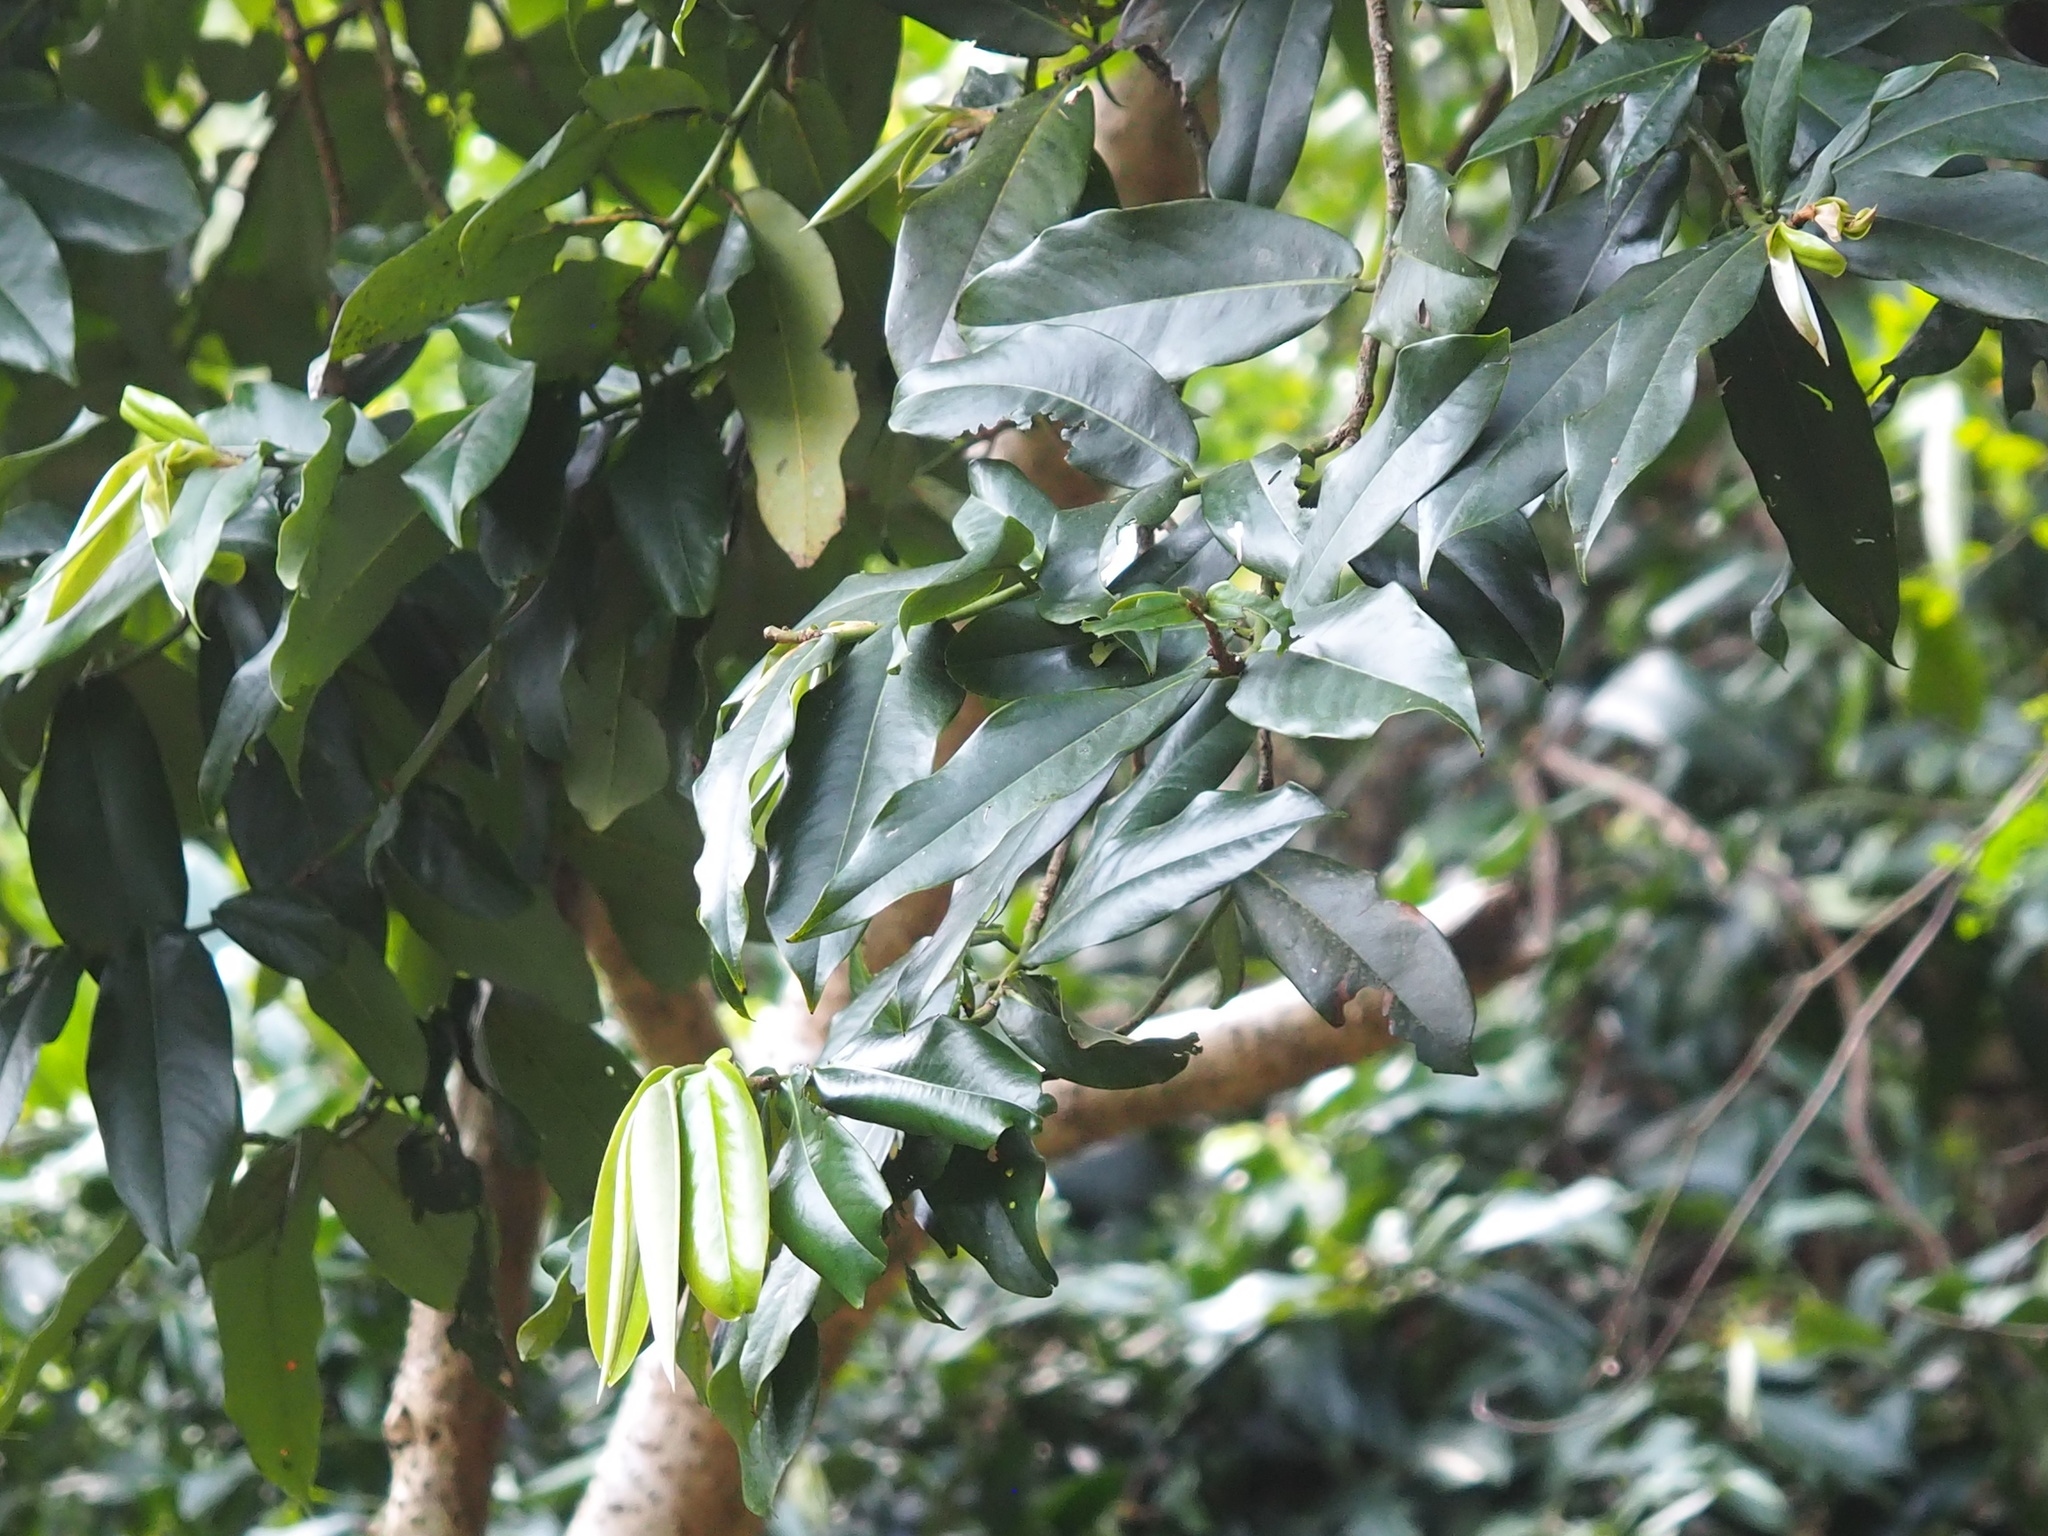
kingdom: Plantae
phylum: Tracheophyta
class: Magnoliopsida
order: Ericales
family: Ebenaceae
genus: Diospyros
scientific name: Diospyros blancoi
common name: Mabola-tree
